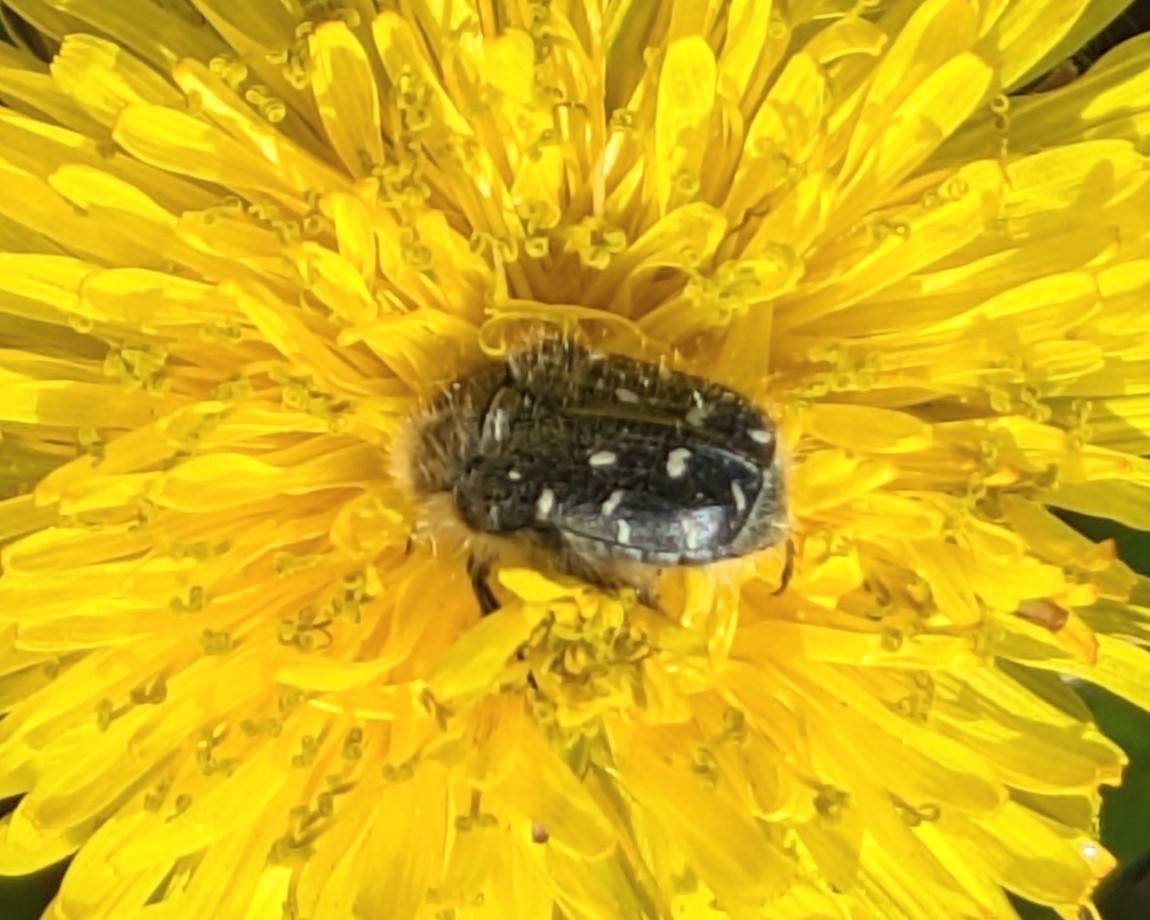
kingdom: Animalia
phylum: Arthropoda
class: Insecta
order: Coleoptera
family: Scarabaeidae
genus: Tropinota
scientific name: Tropinota hirta
